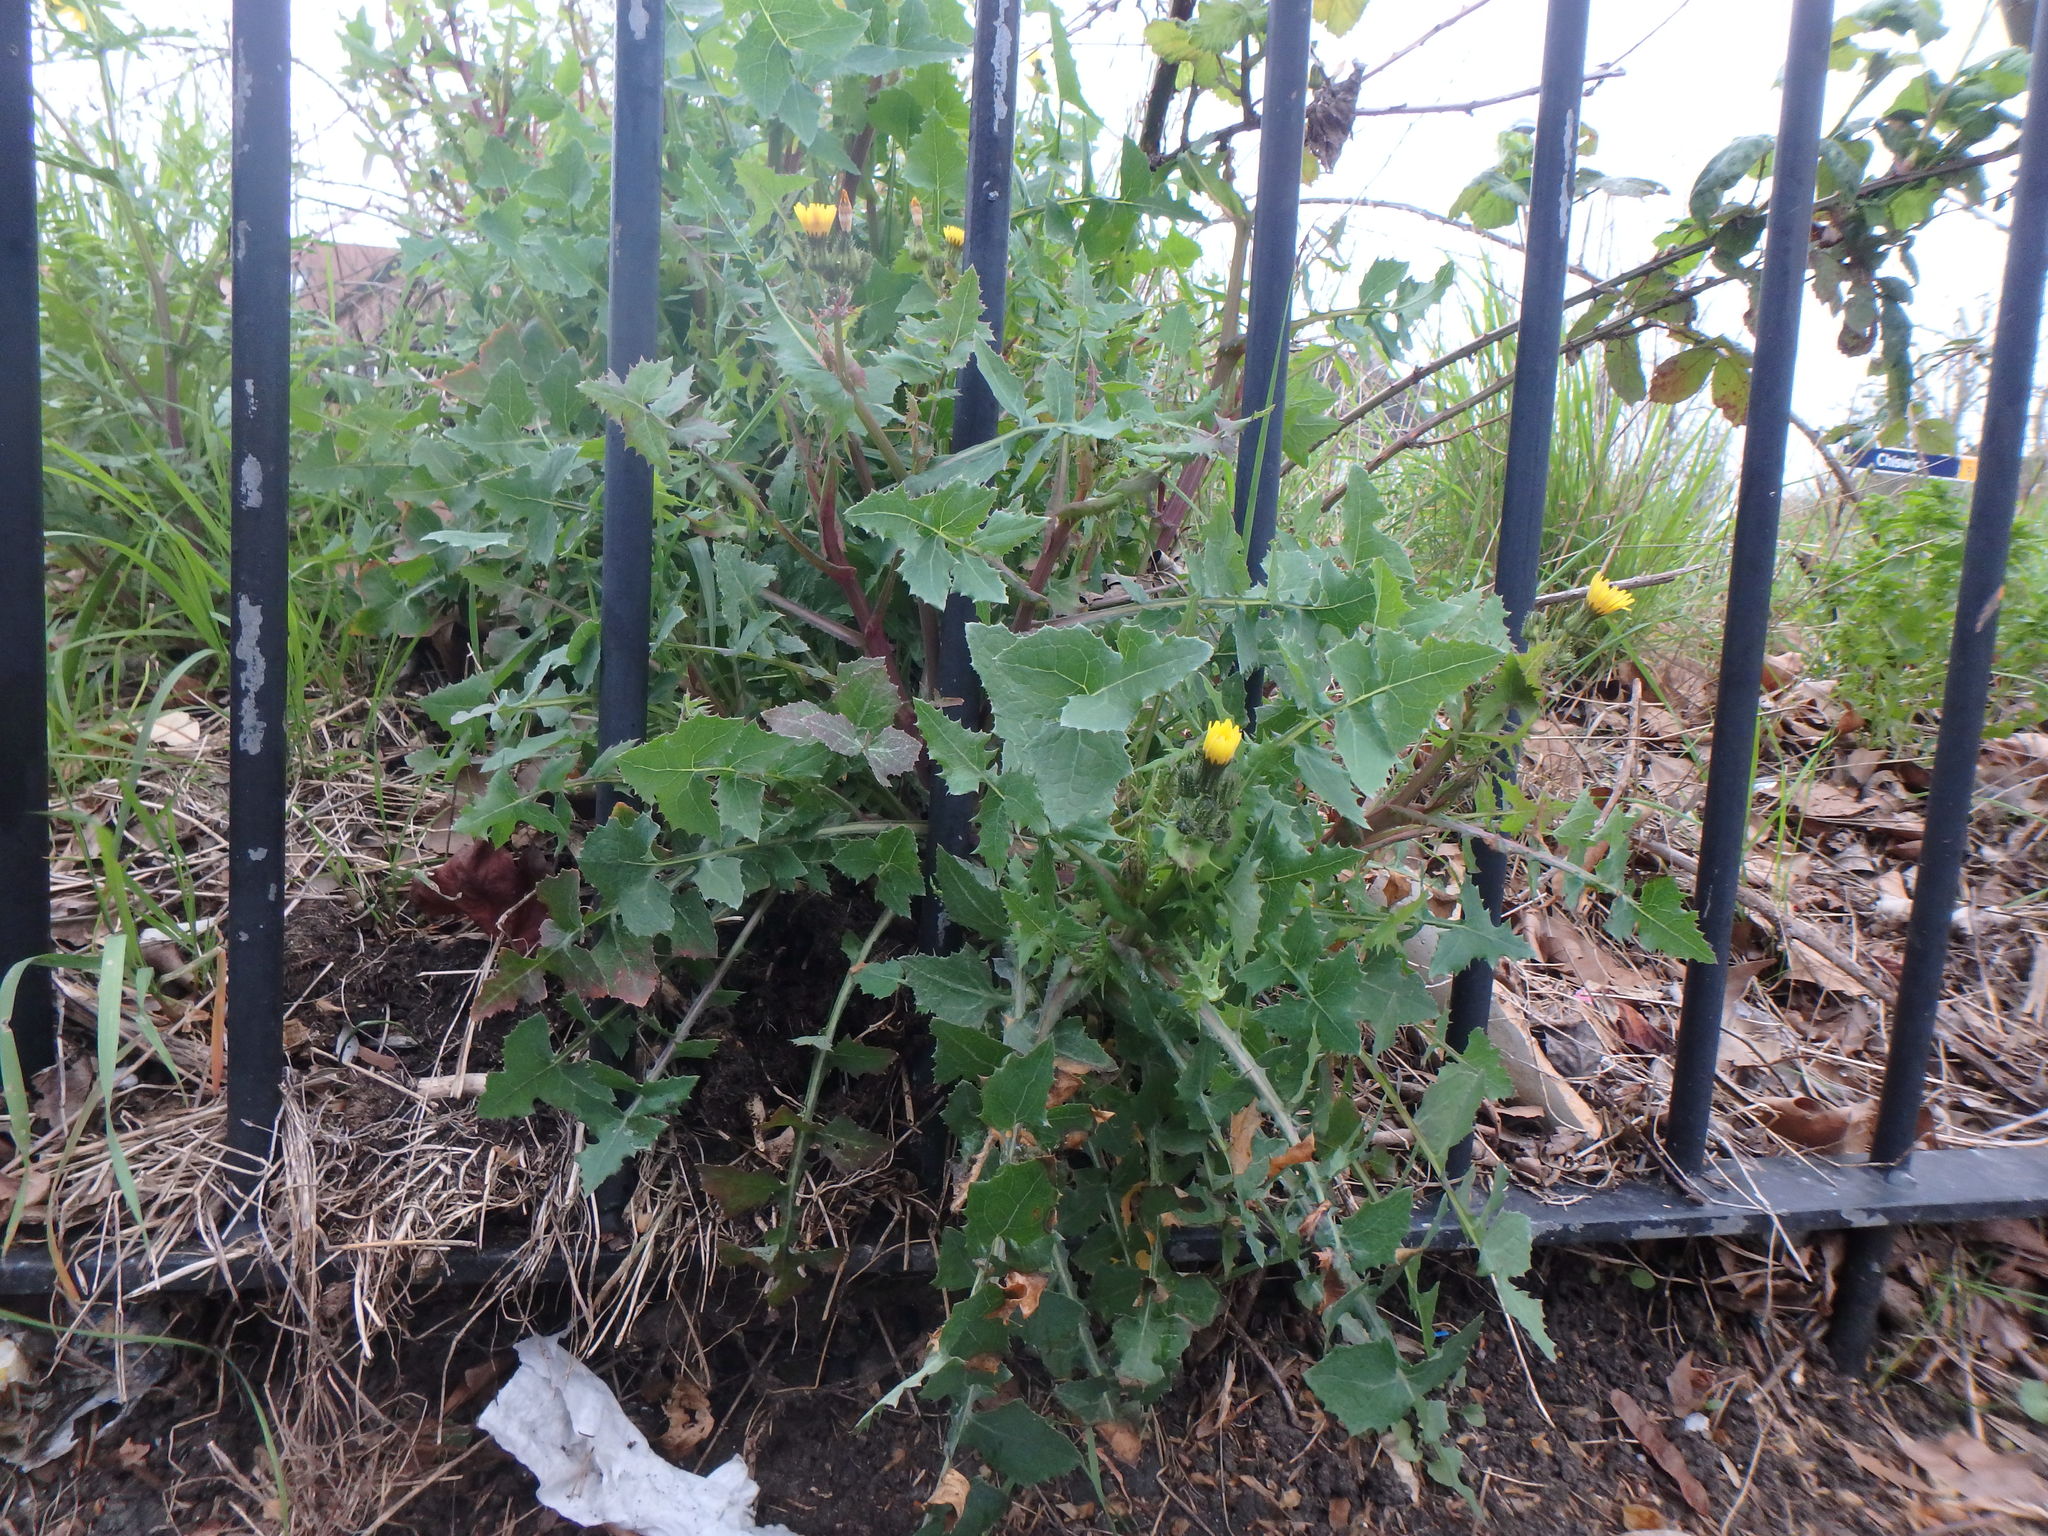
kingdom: Plantae
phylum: Tracheophyta
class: Magnoliopsida
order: Asterales
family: Asteraceae
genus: Sonchus
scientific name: Sonchus oleraceus
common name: Common sowthistle
